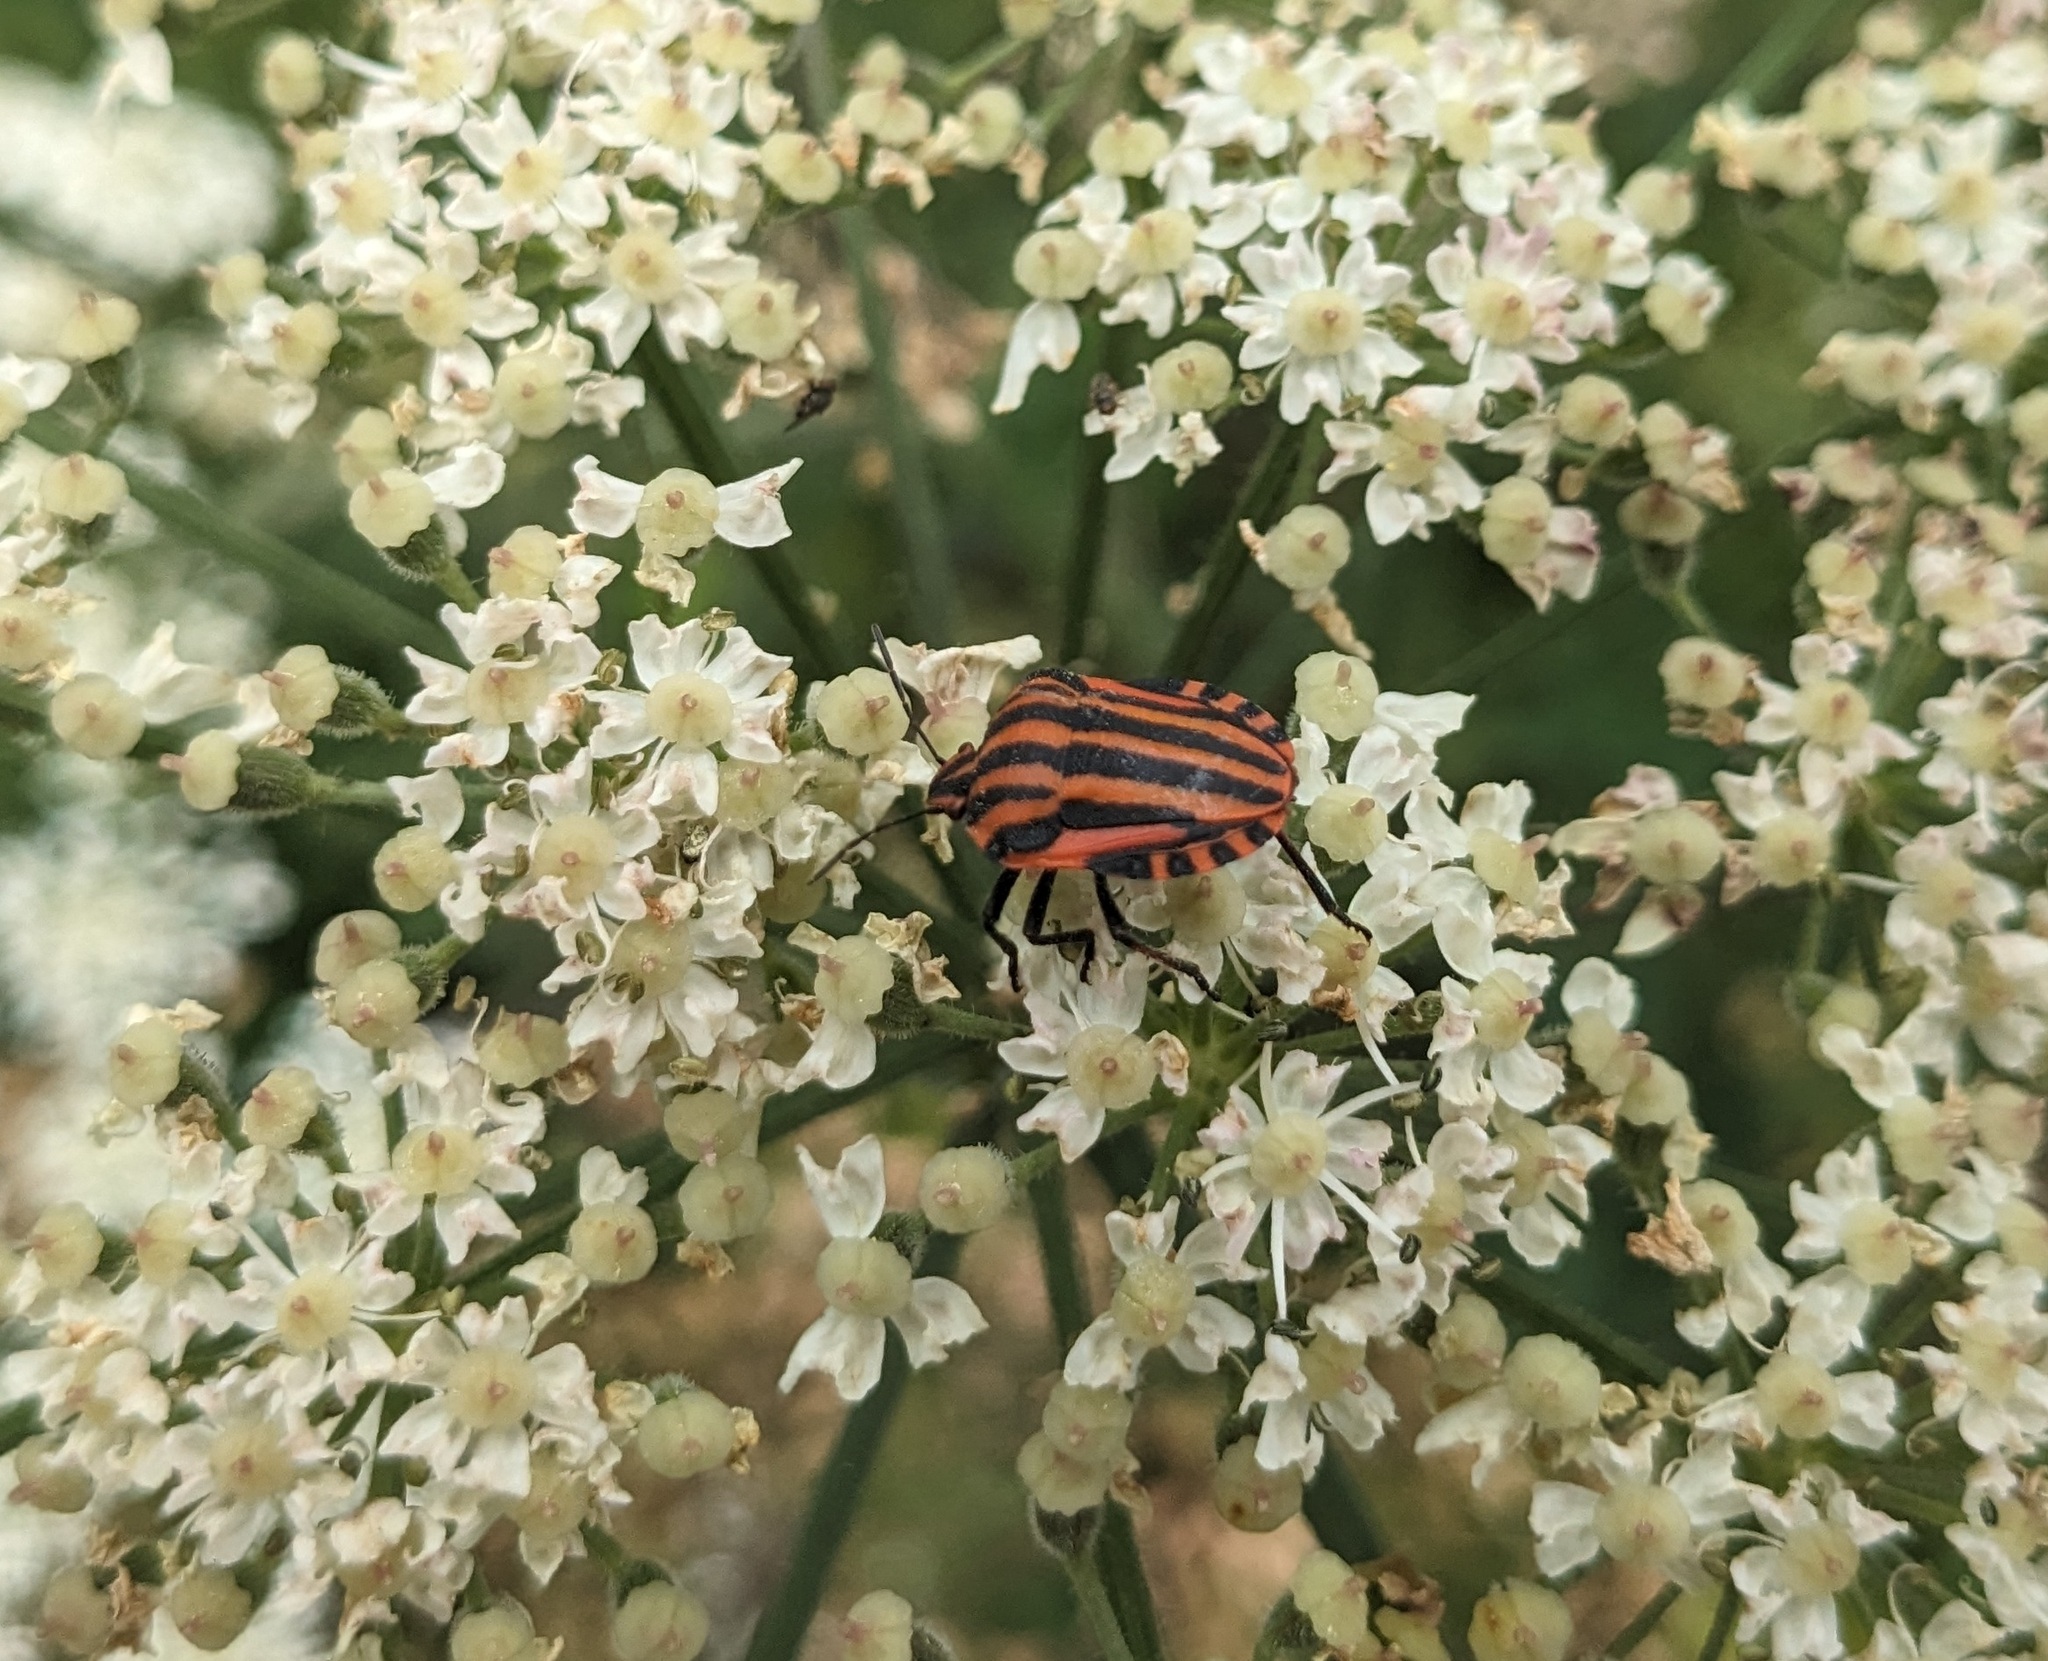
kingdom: Animalia
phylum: Arthropoda
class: Insecta
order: Hemiptera
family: Pentatomidae
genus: Graphosoma
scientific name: Graphosoma italicum
